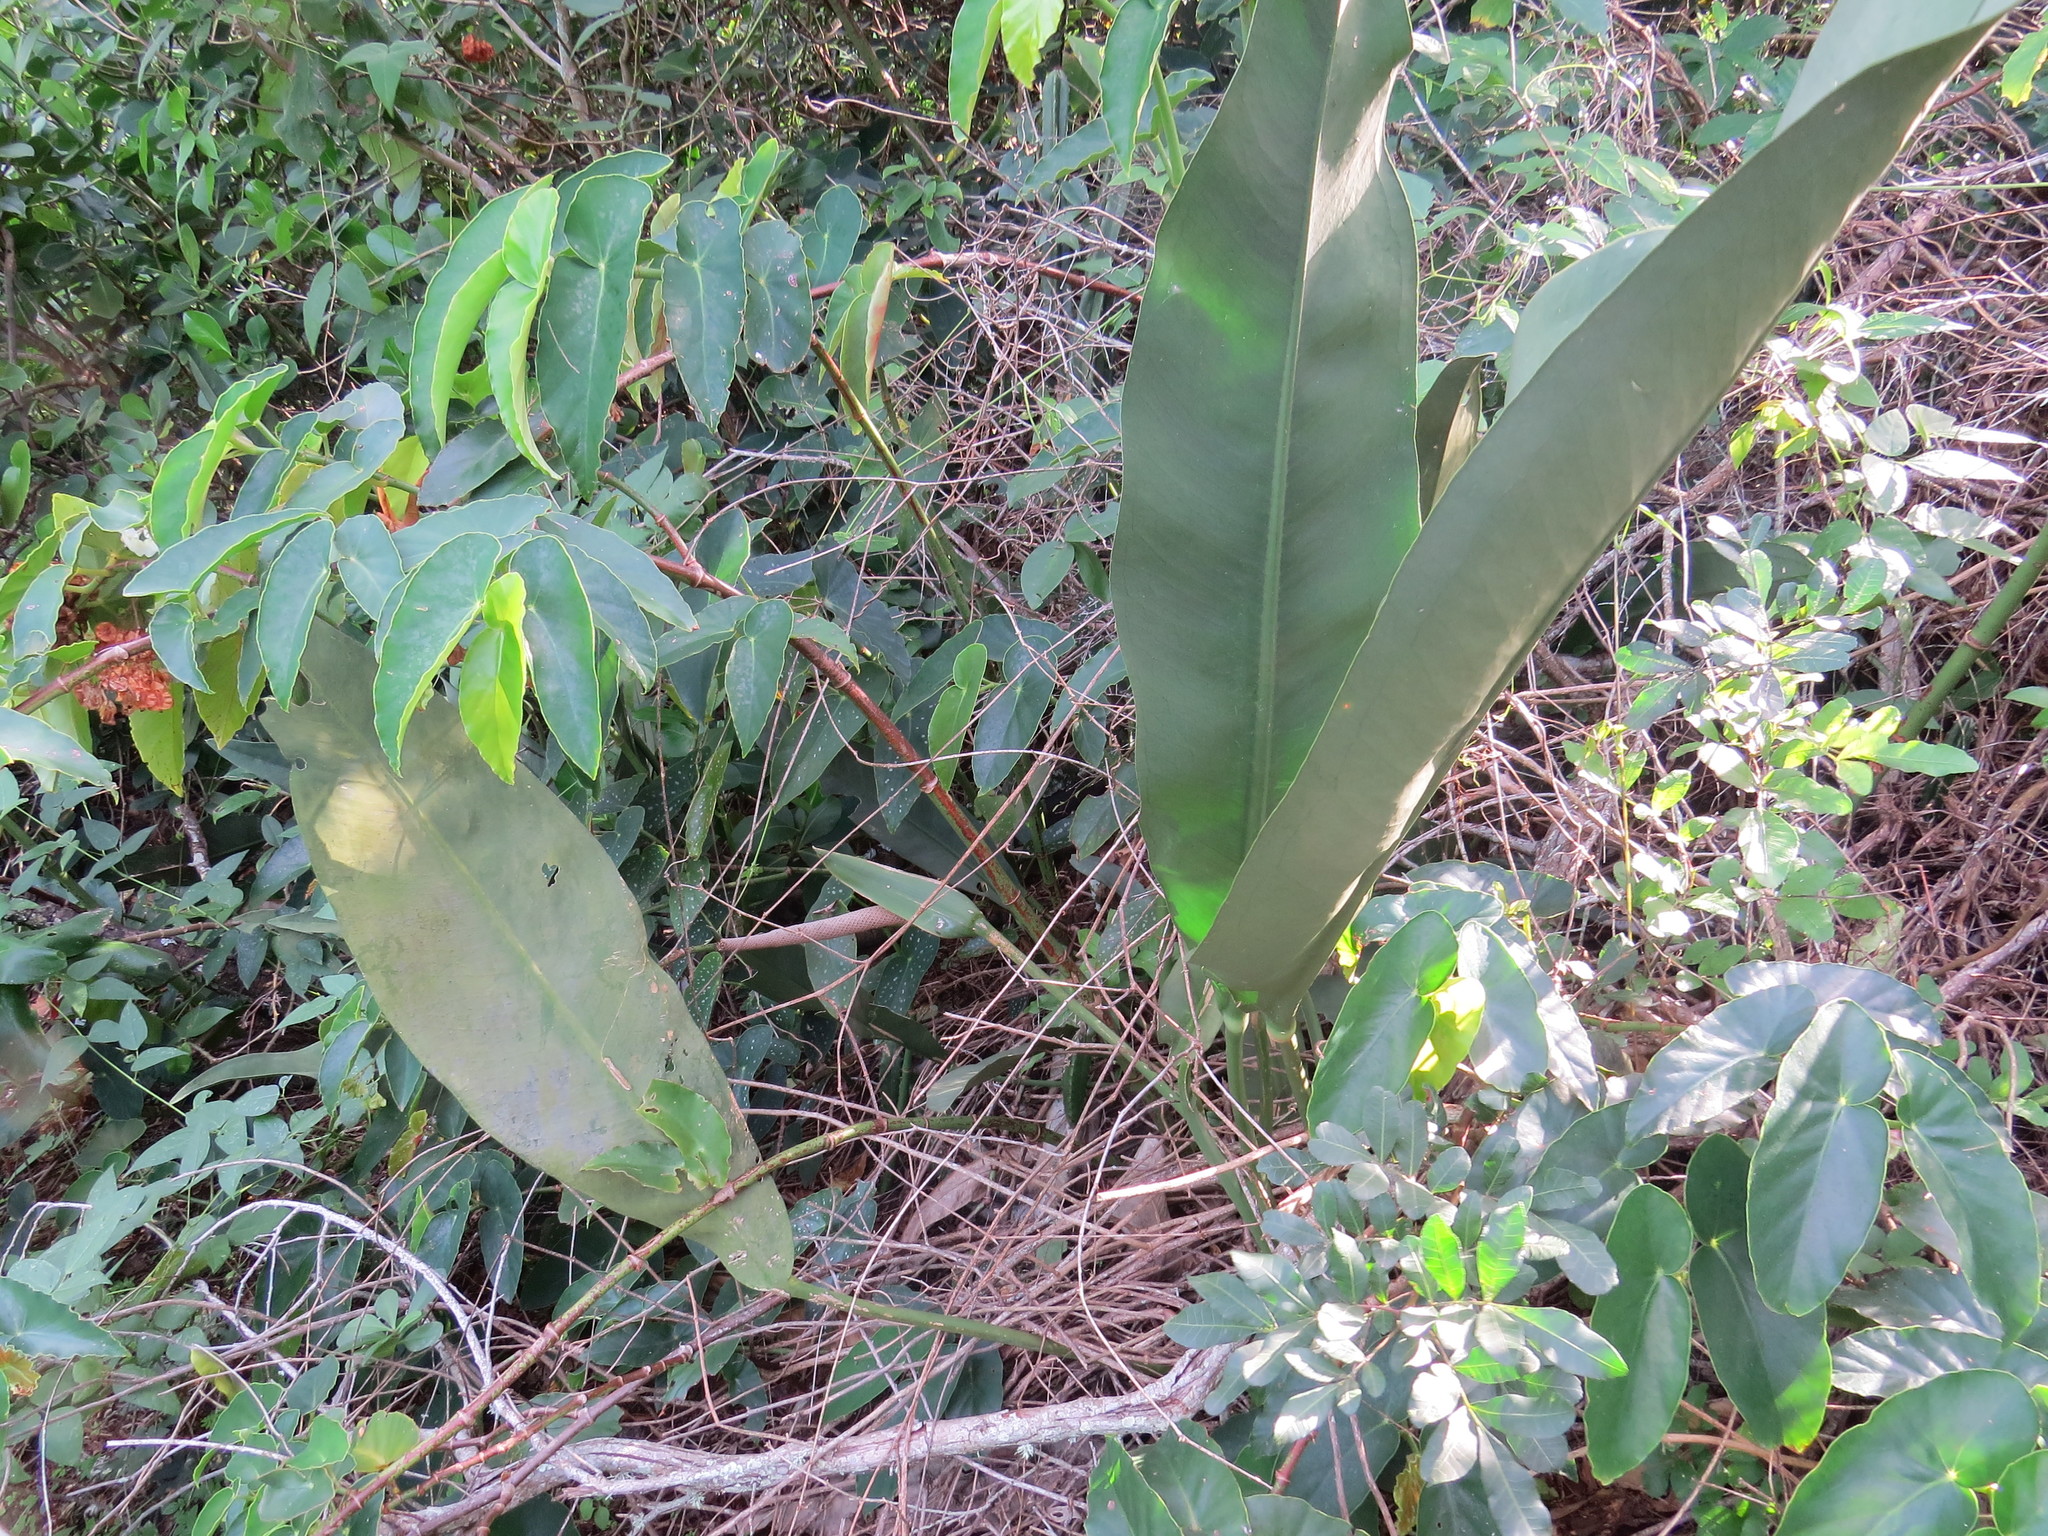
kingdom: Plantae
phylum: Tracheophyta
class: Liliopsida
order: Alismatales
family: Araceae
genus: Anthurium
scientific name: Anthurium coriaceum
